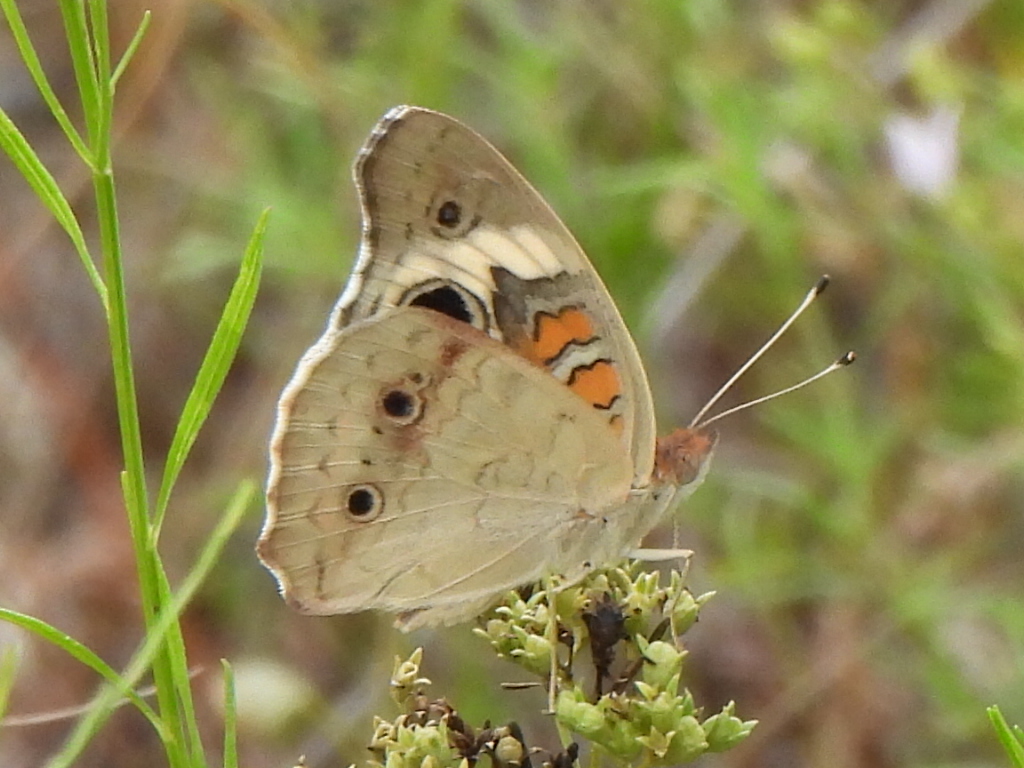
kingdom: Animalia
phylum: Arthropoda
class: Insecta
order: Lepidoptera
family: Nymphalidae
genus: Junonia
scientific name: Junonia coenia
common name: Common buckeye
